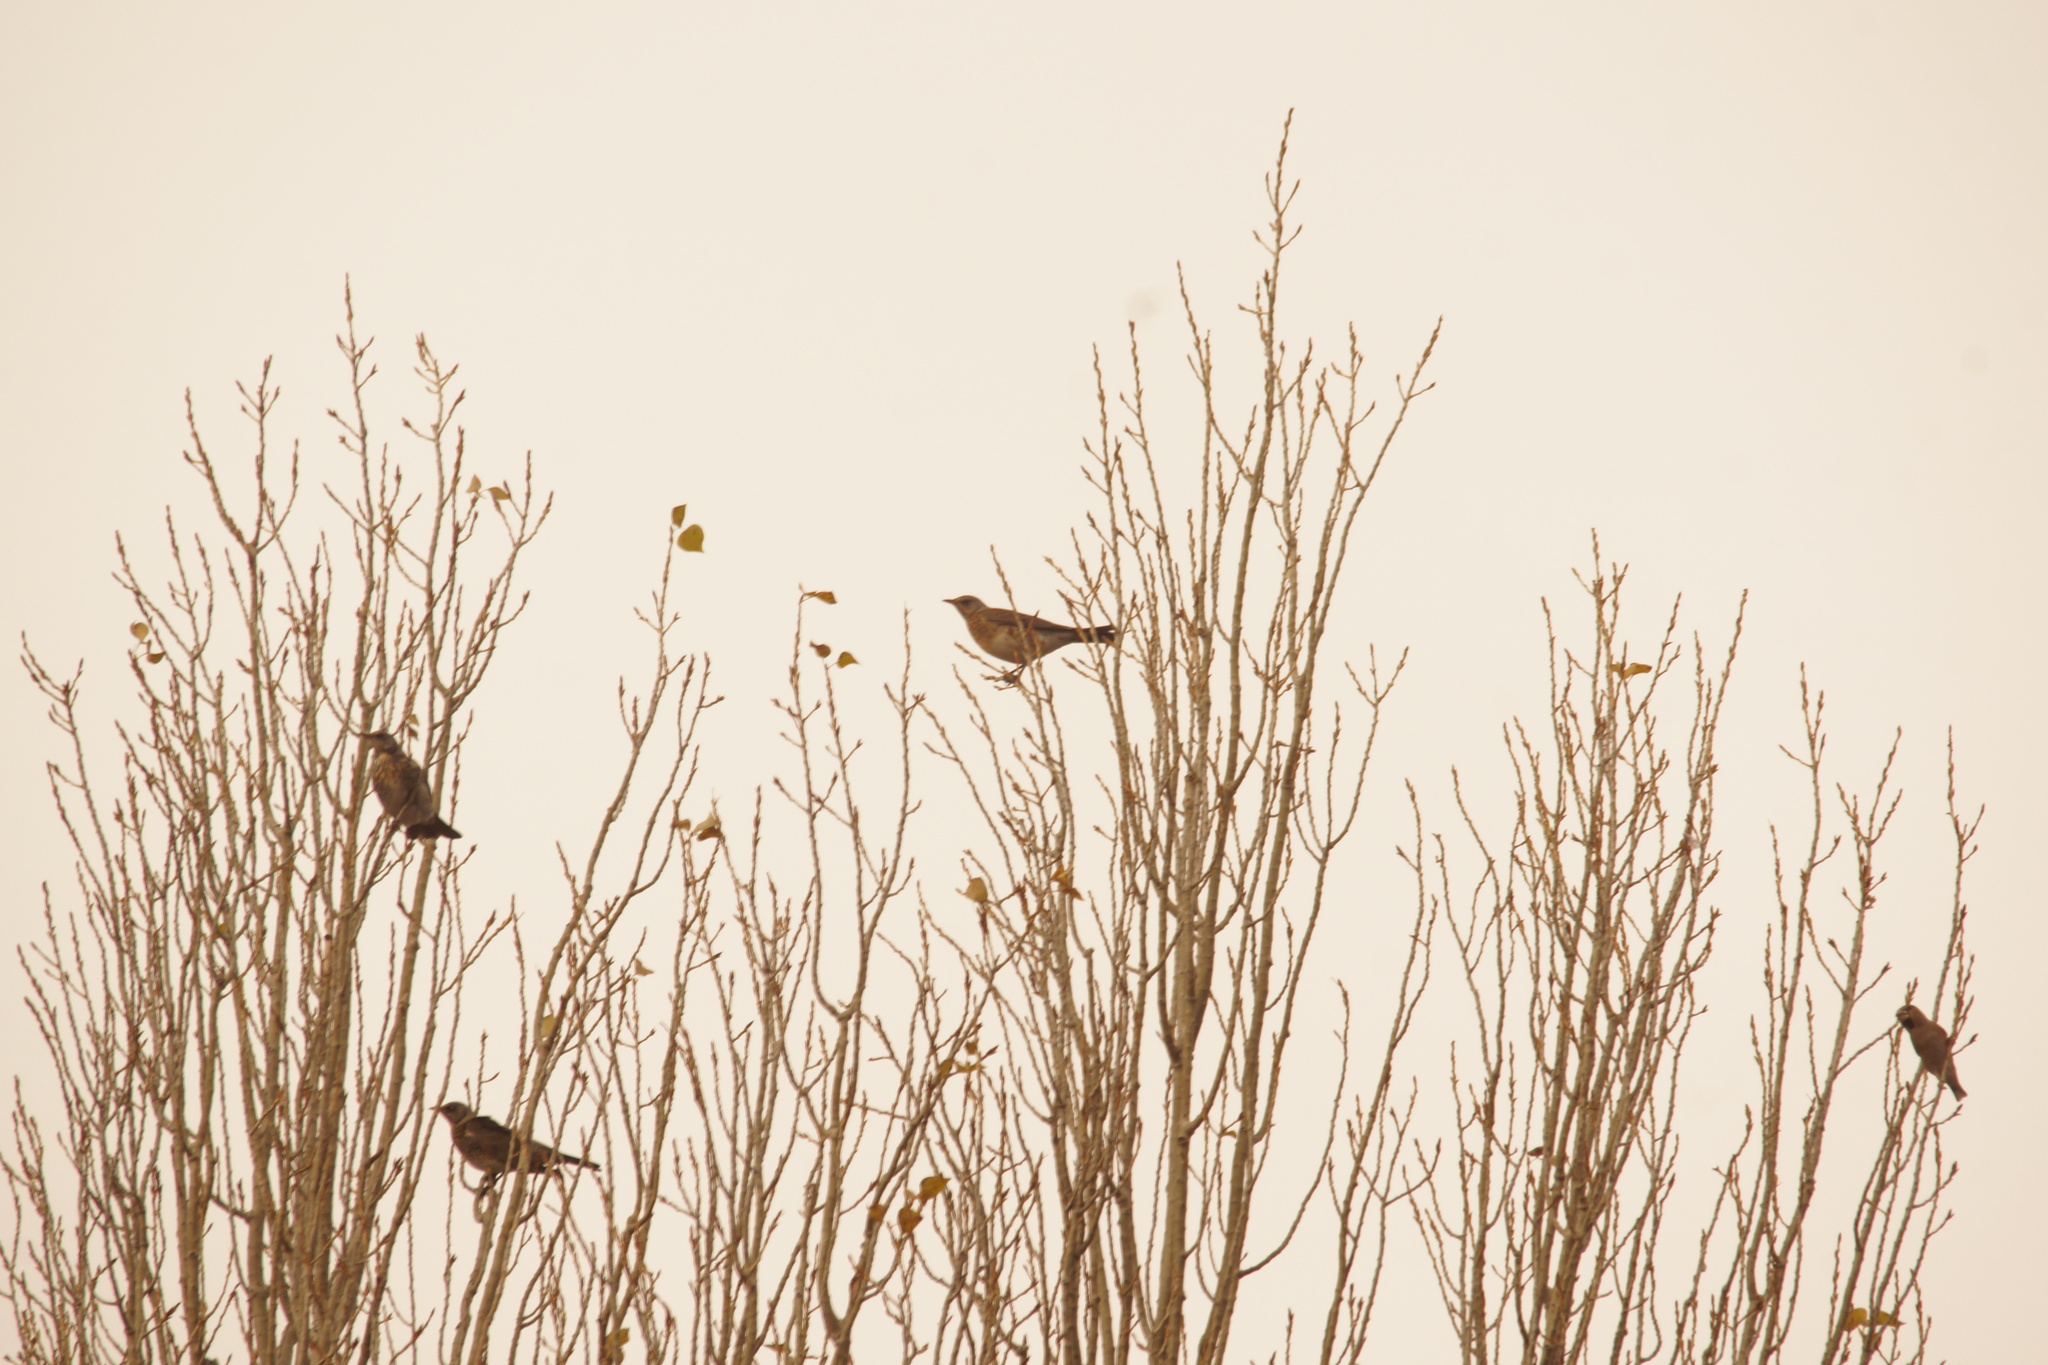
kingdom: Animalia
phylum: Chordata
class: Aves
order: Passeriformes
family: Turdidae
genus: Turdus
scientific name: Turdus pilaris
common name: Fieldfare
